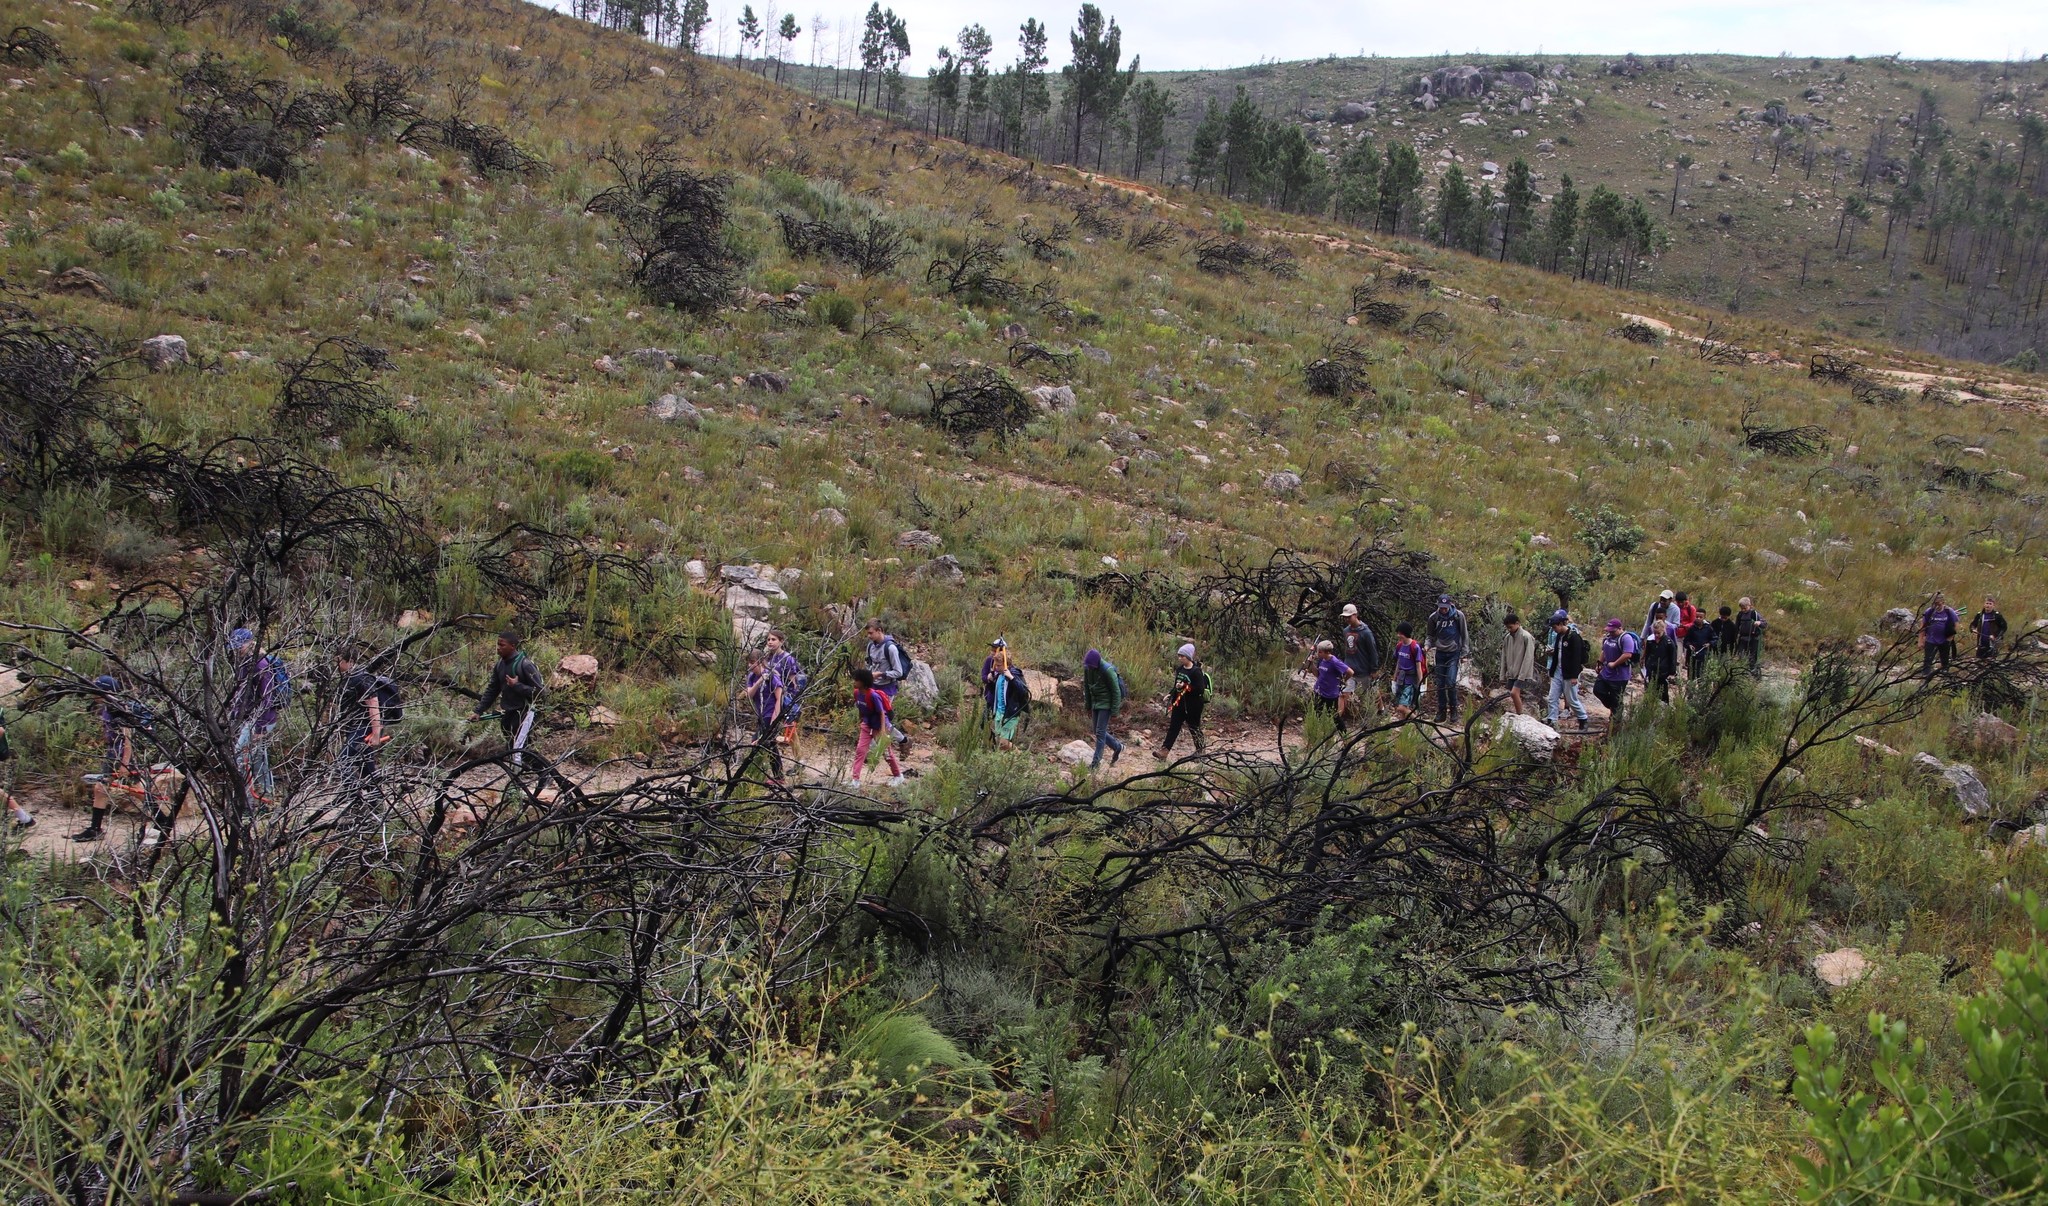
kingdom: Plantae
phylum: Tracheophyta
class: Pinopsida
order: Pinales
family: Pinaceae
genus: Pinus
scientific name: Pinus pinaster
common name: Maritime pine
